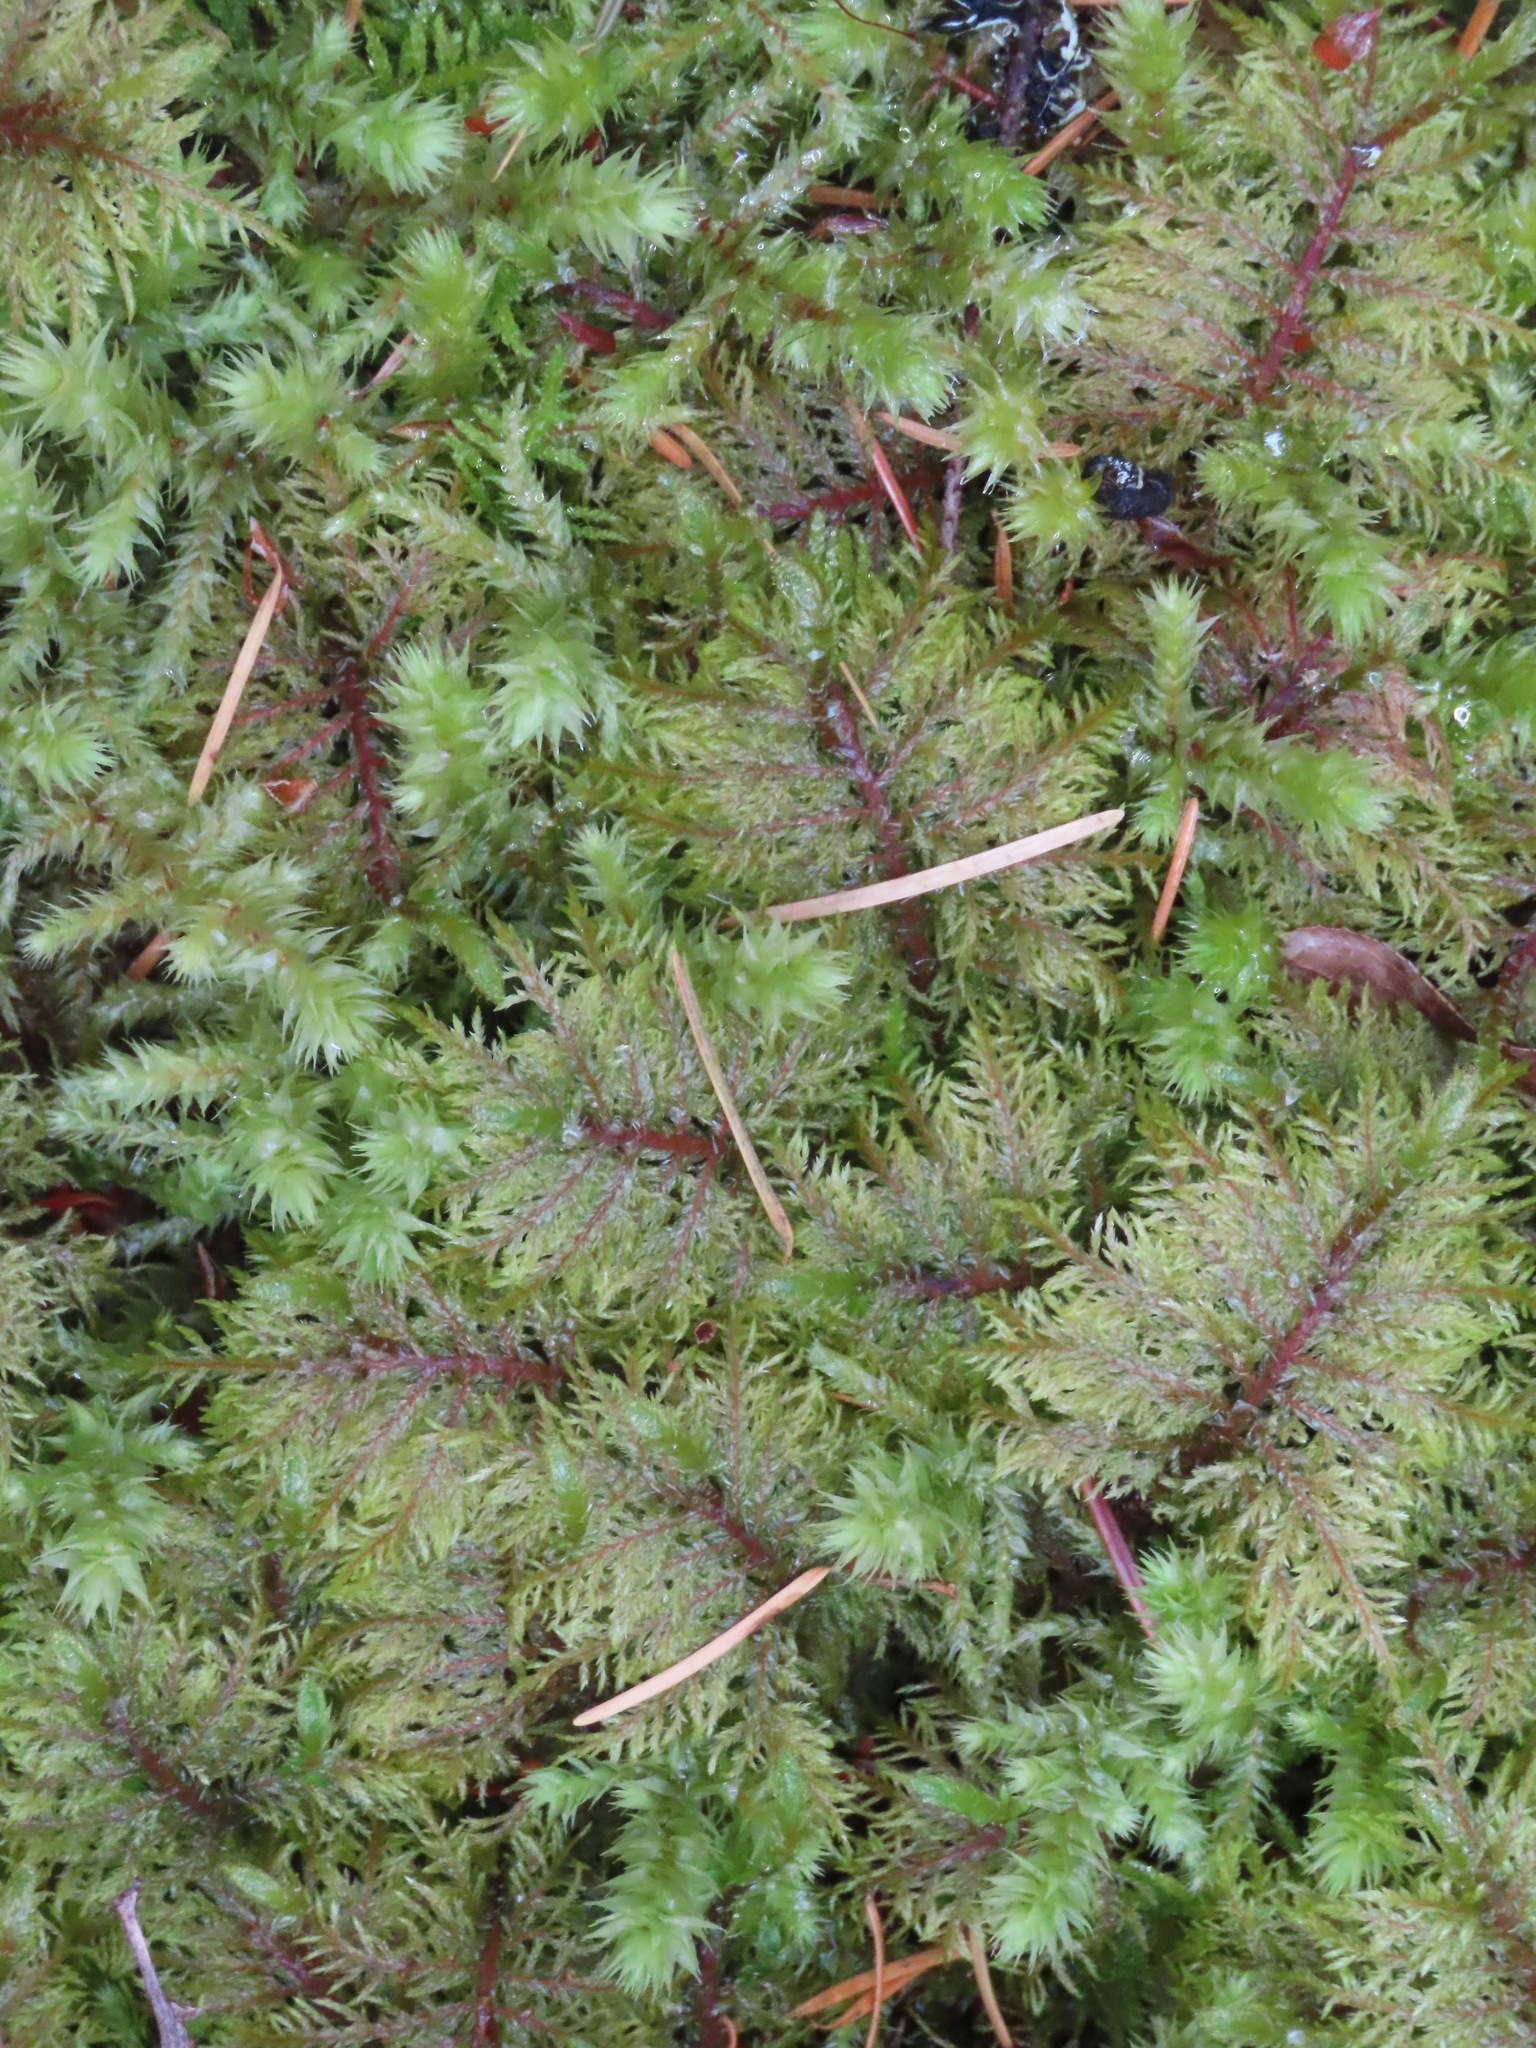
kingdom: Plantae
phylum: Bryophyta
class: Bryopsida
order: Hypnales
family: Hylocomiaceae
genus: Hylocomium
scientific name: Hylocomium splendens
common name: Stairstep moss
